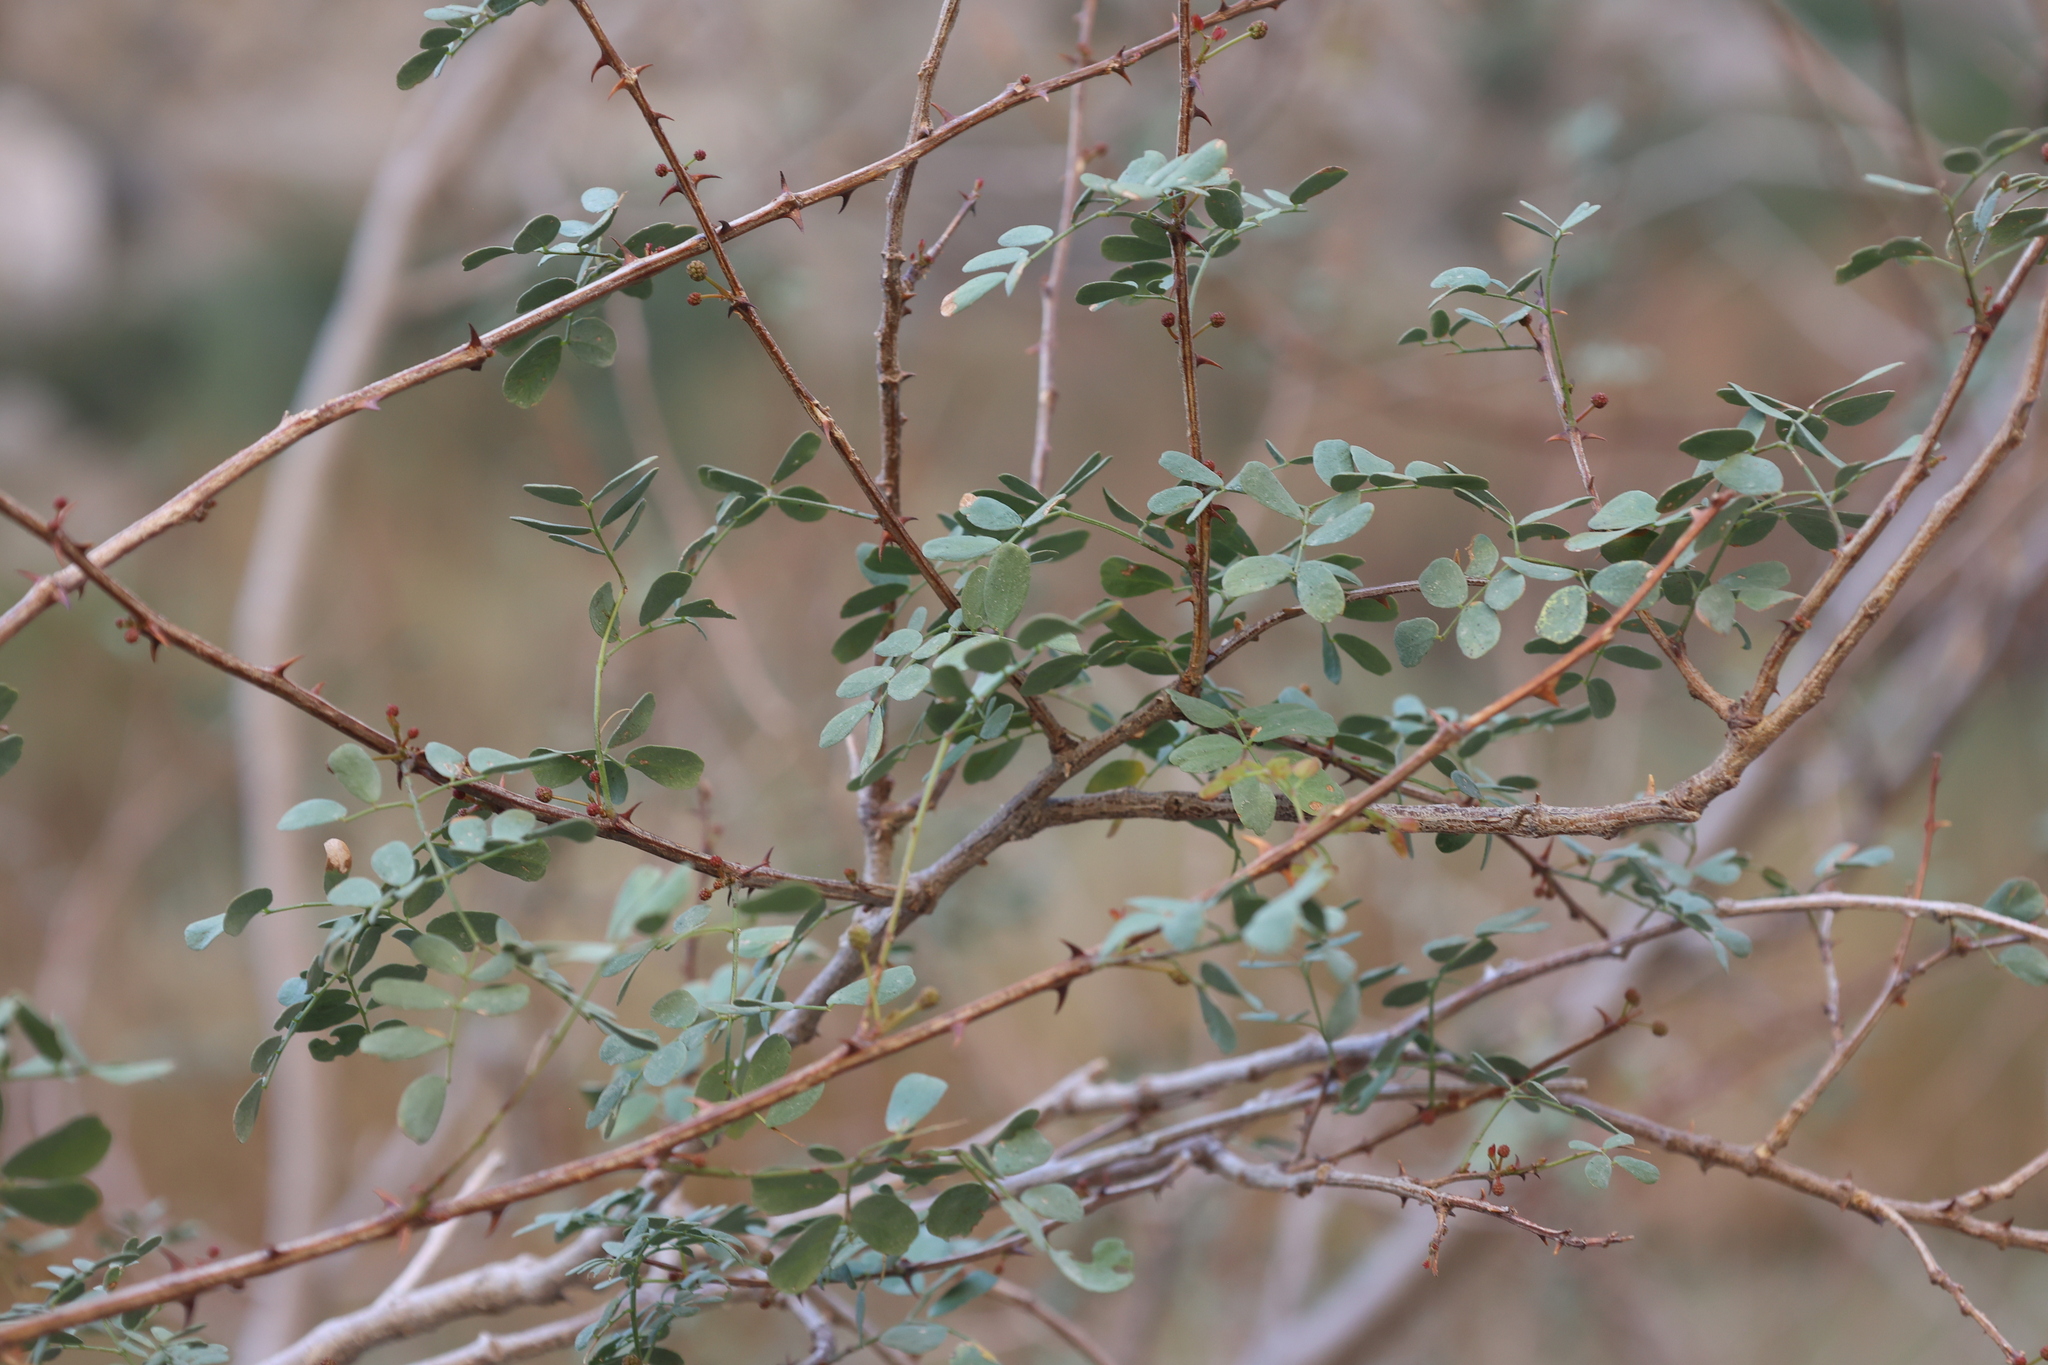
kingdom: Plantae
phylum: Tracheophyta
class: Magnoliopsida
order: Fabales
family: Fabaceae
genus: Senegalia
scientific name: Senegalia roemeriana
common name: Roemer's acacia
